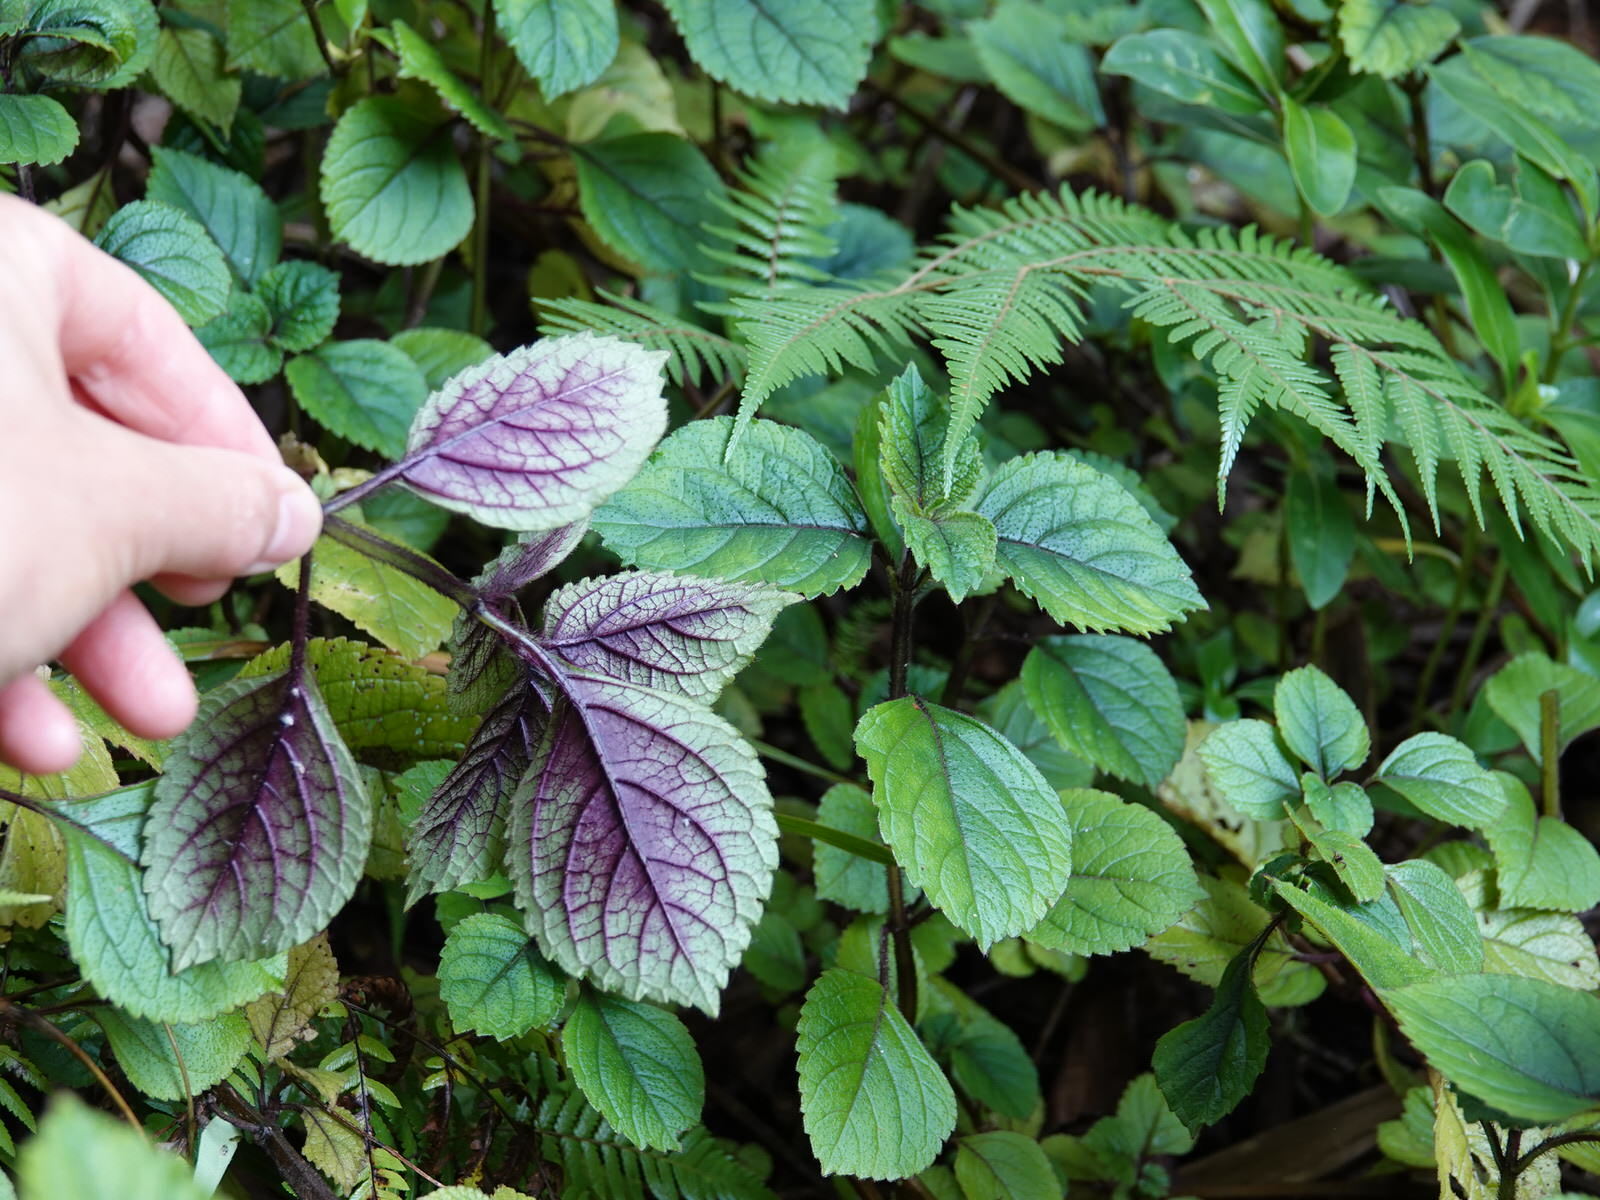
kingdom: Plantae
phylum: Tracheophyta
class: Magnoliopsida
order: Lamiales
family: Lamiaceae
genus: Plectranthus
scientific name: Plectranthus ciliatus
